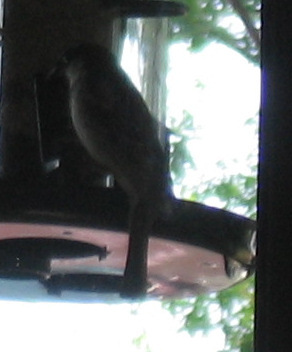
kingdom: Animalia
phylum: Chordata
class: Aves
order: Passeriformes
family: Passeridae
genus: Passer
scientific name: Passer domesticus
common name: House sparrow
